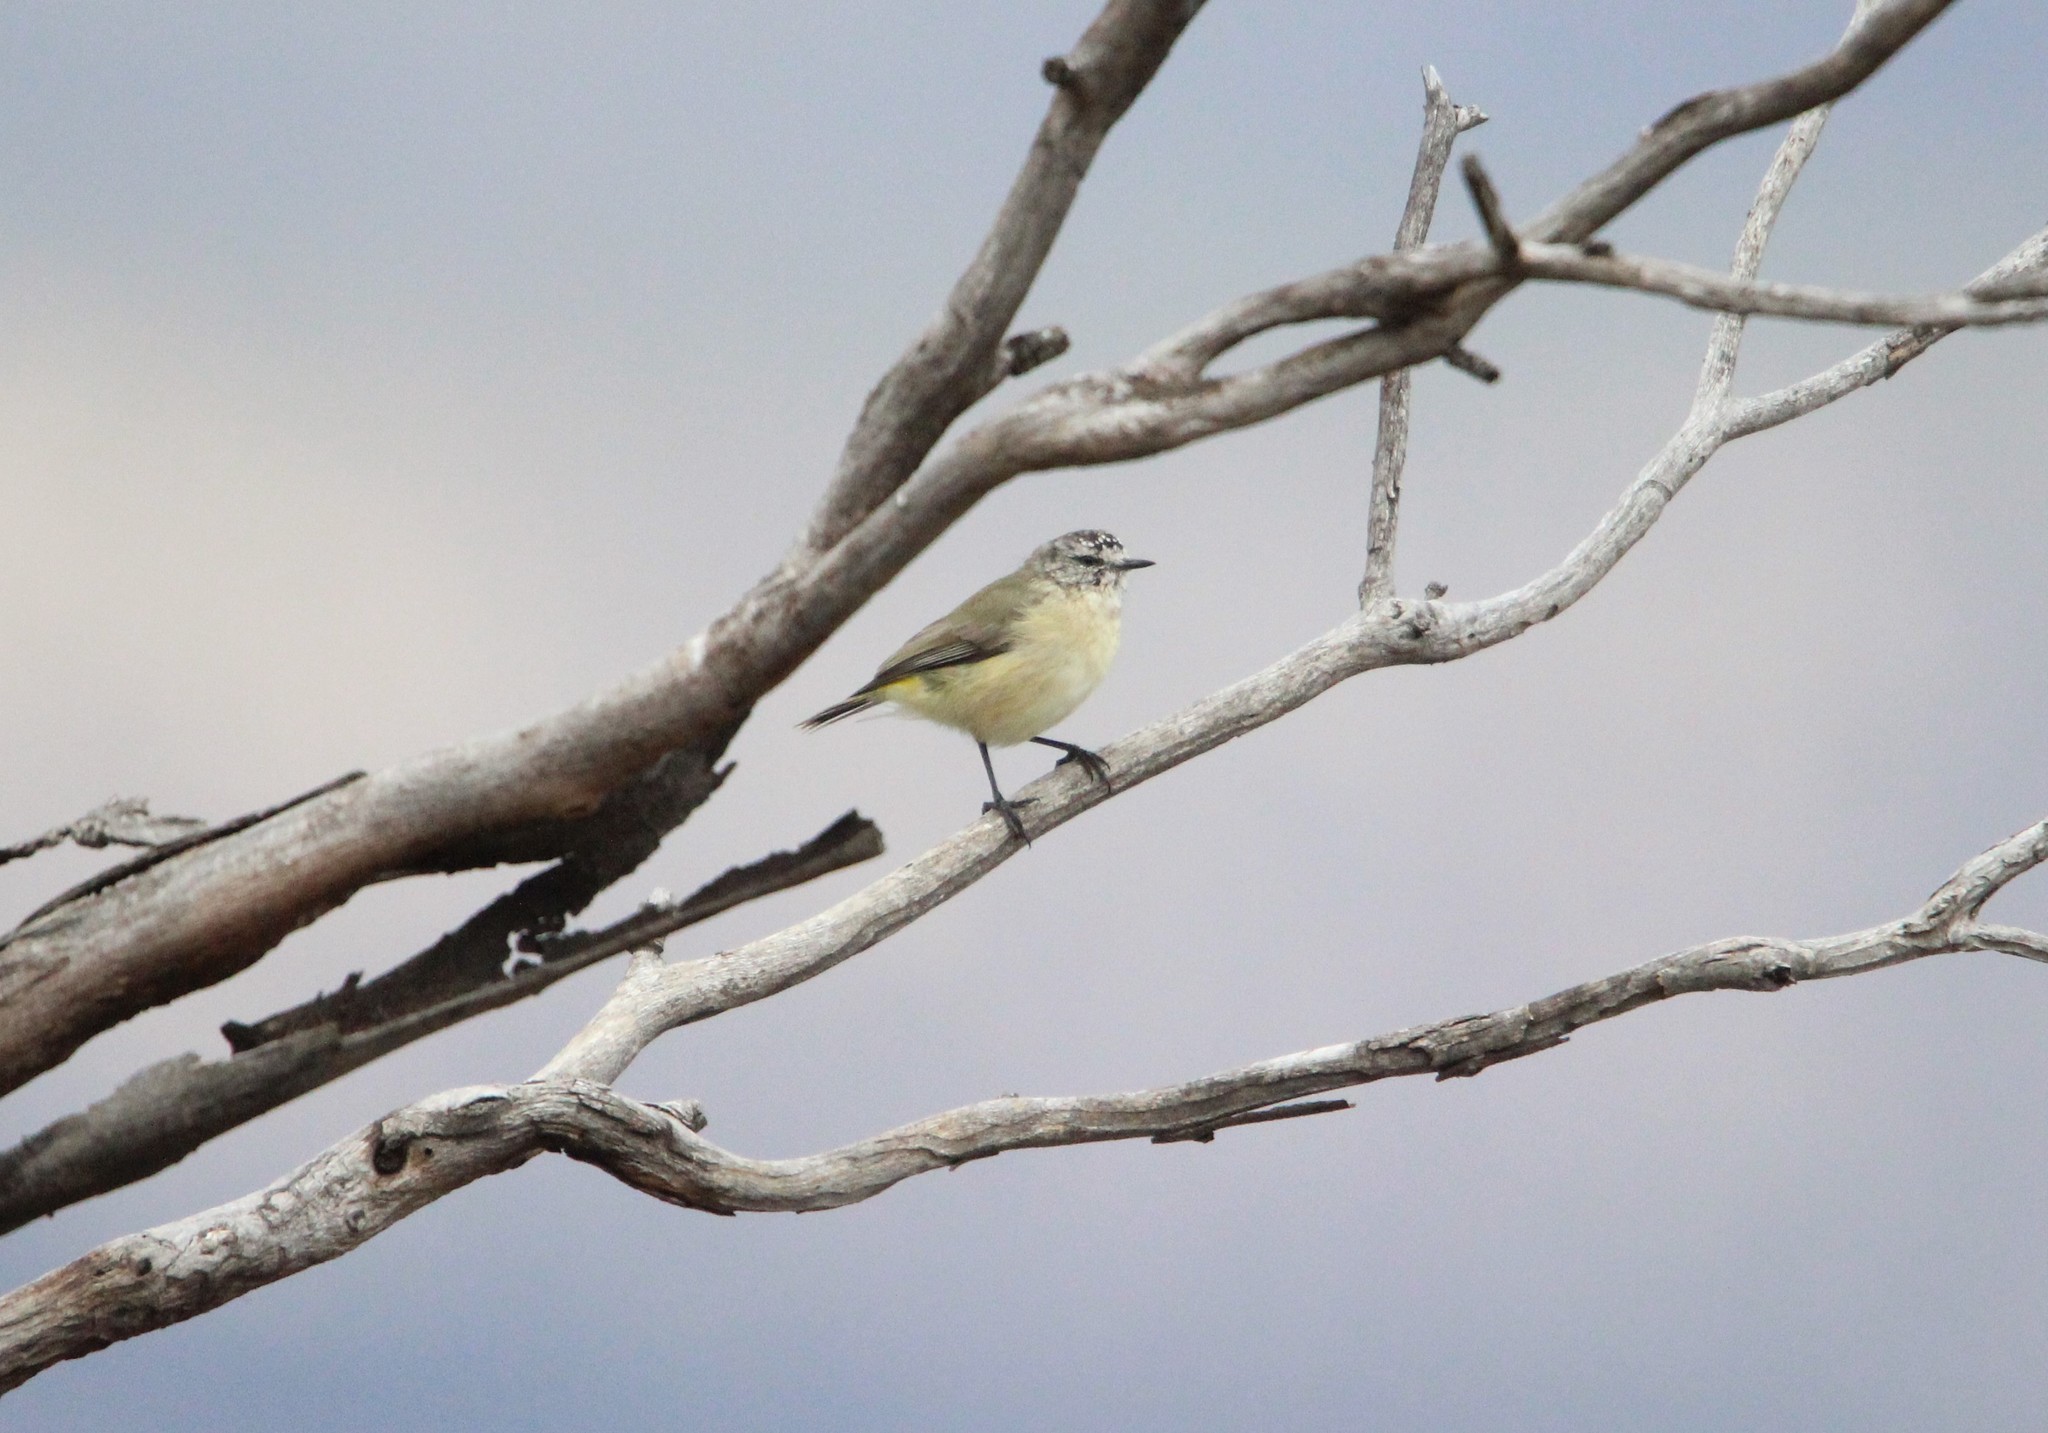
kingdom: Animalia
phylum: Chordata
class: Aves
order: Passeriformes
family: Acanthizidae
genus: Acanthiza
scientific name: Acanthiza chrysorrhoa
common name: Yellow-rumped thornbill
